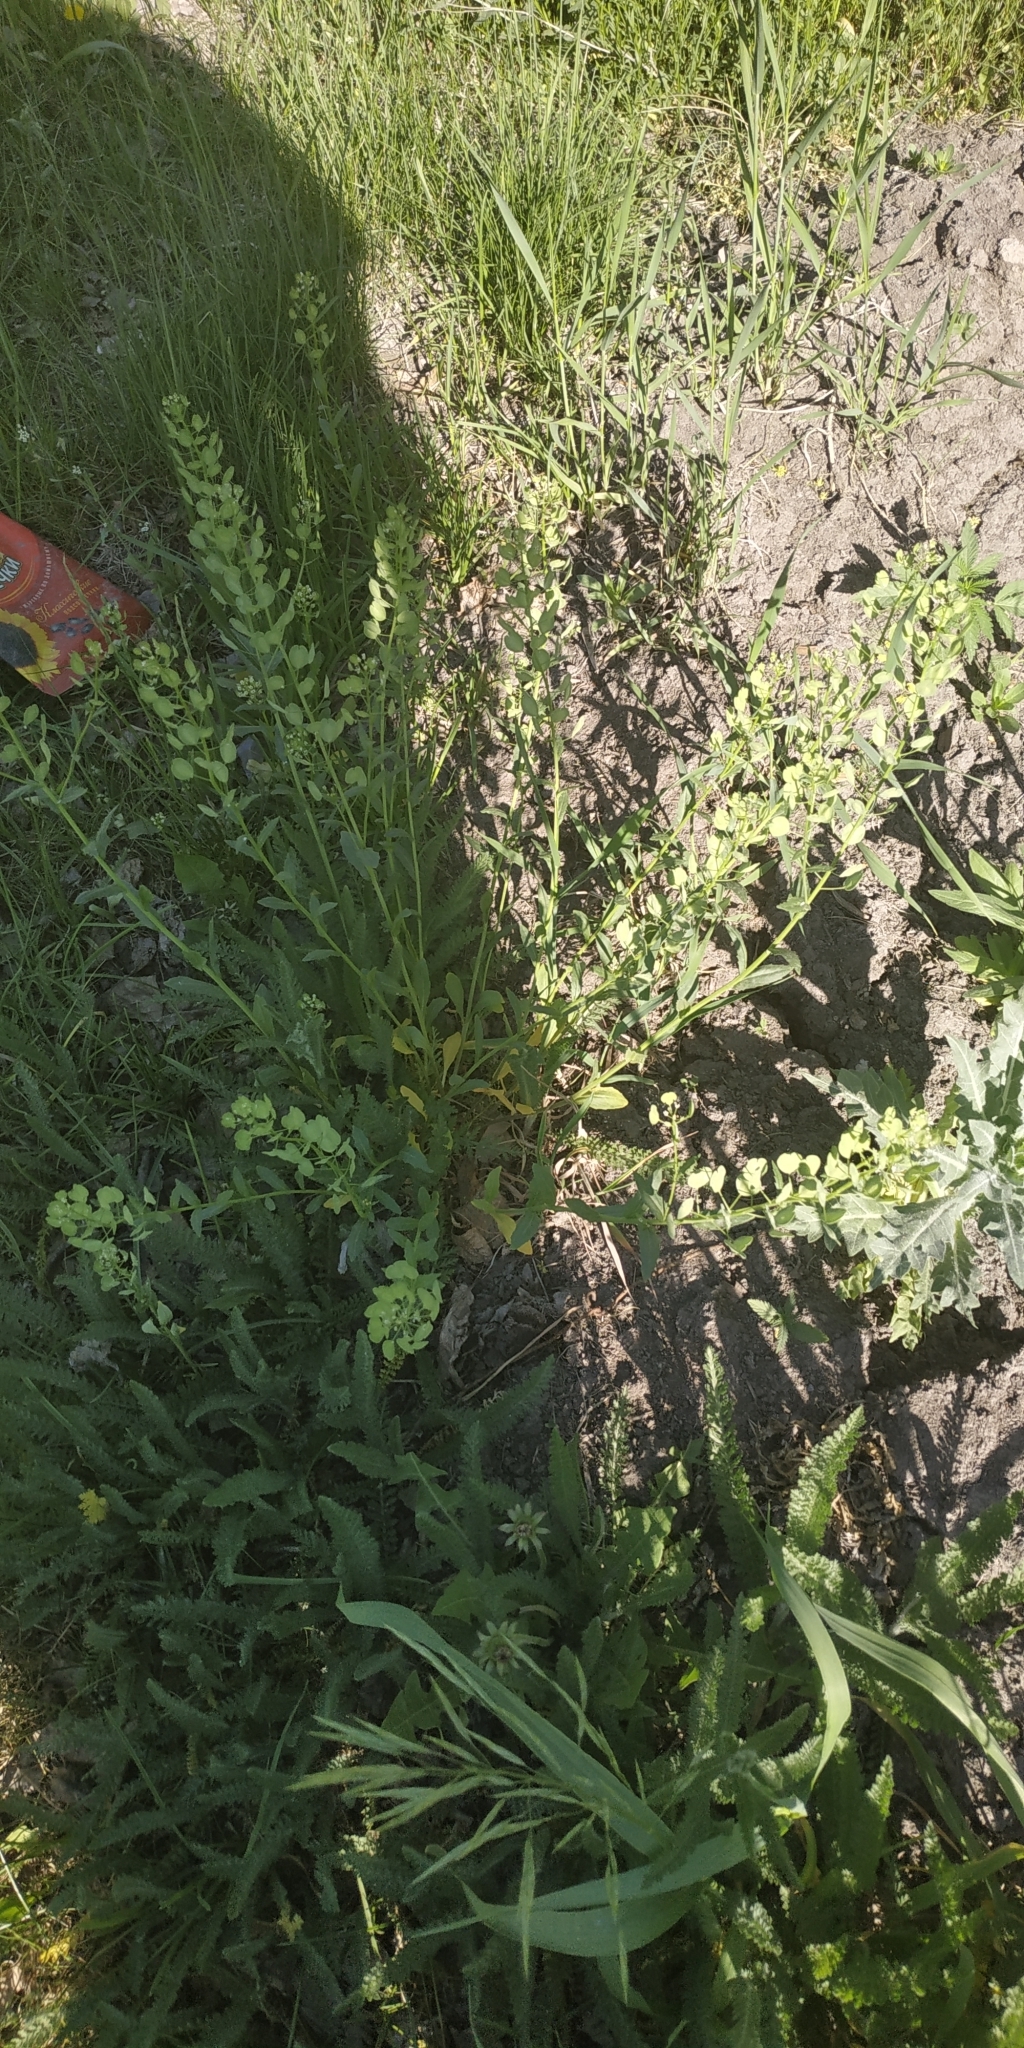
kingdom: Plantae
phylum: Tracheophyta
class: Magnoliopsida
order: Brassicales
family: Brassicaceae
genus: Thlaspi
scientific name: Thlaspi arvense
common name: Field pennycress
